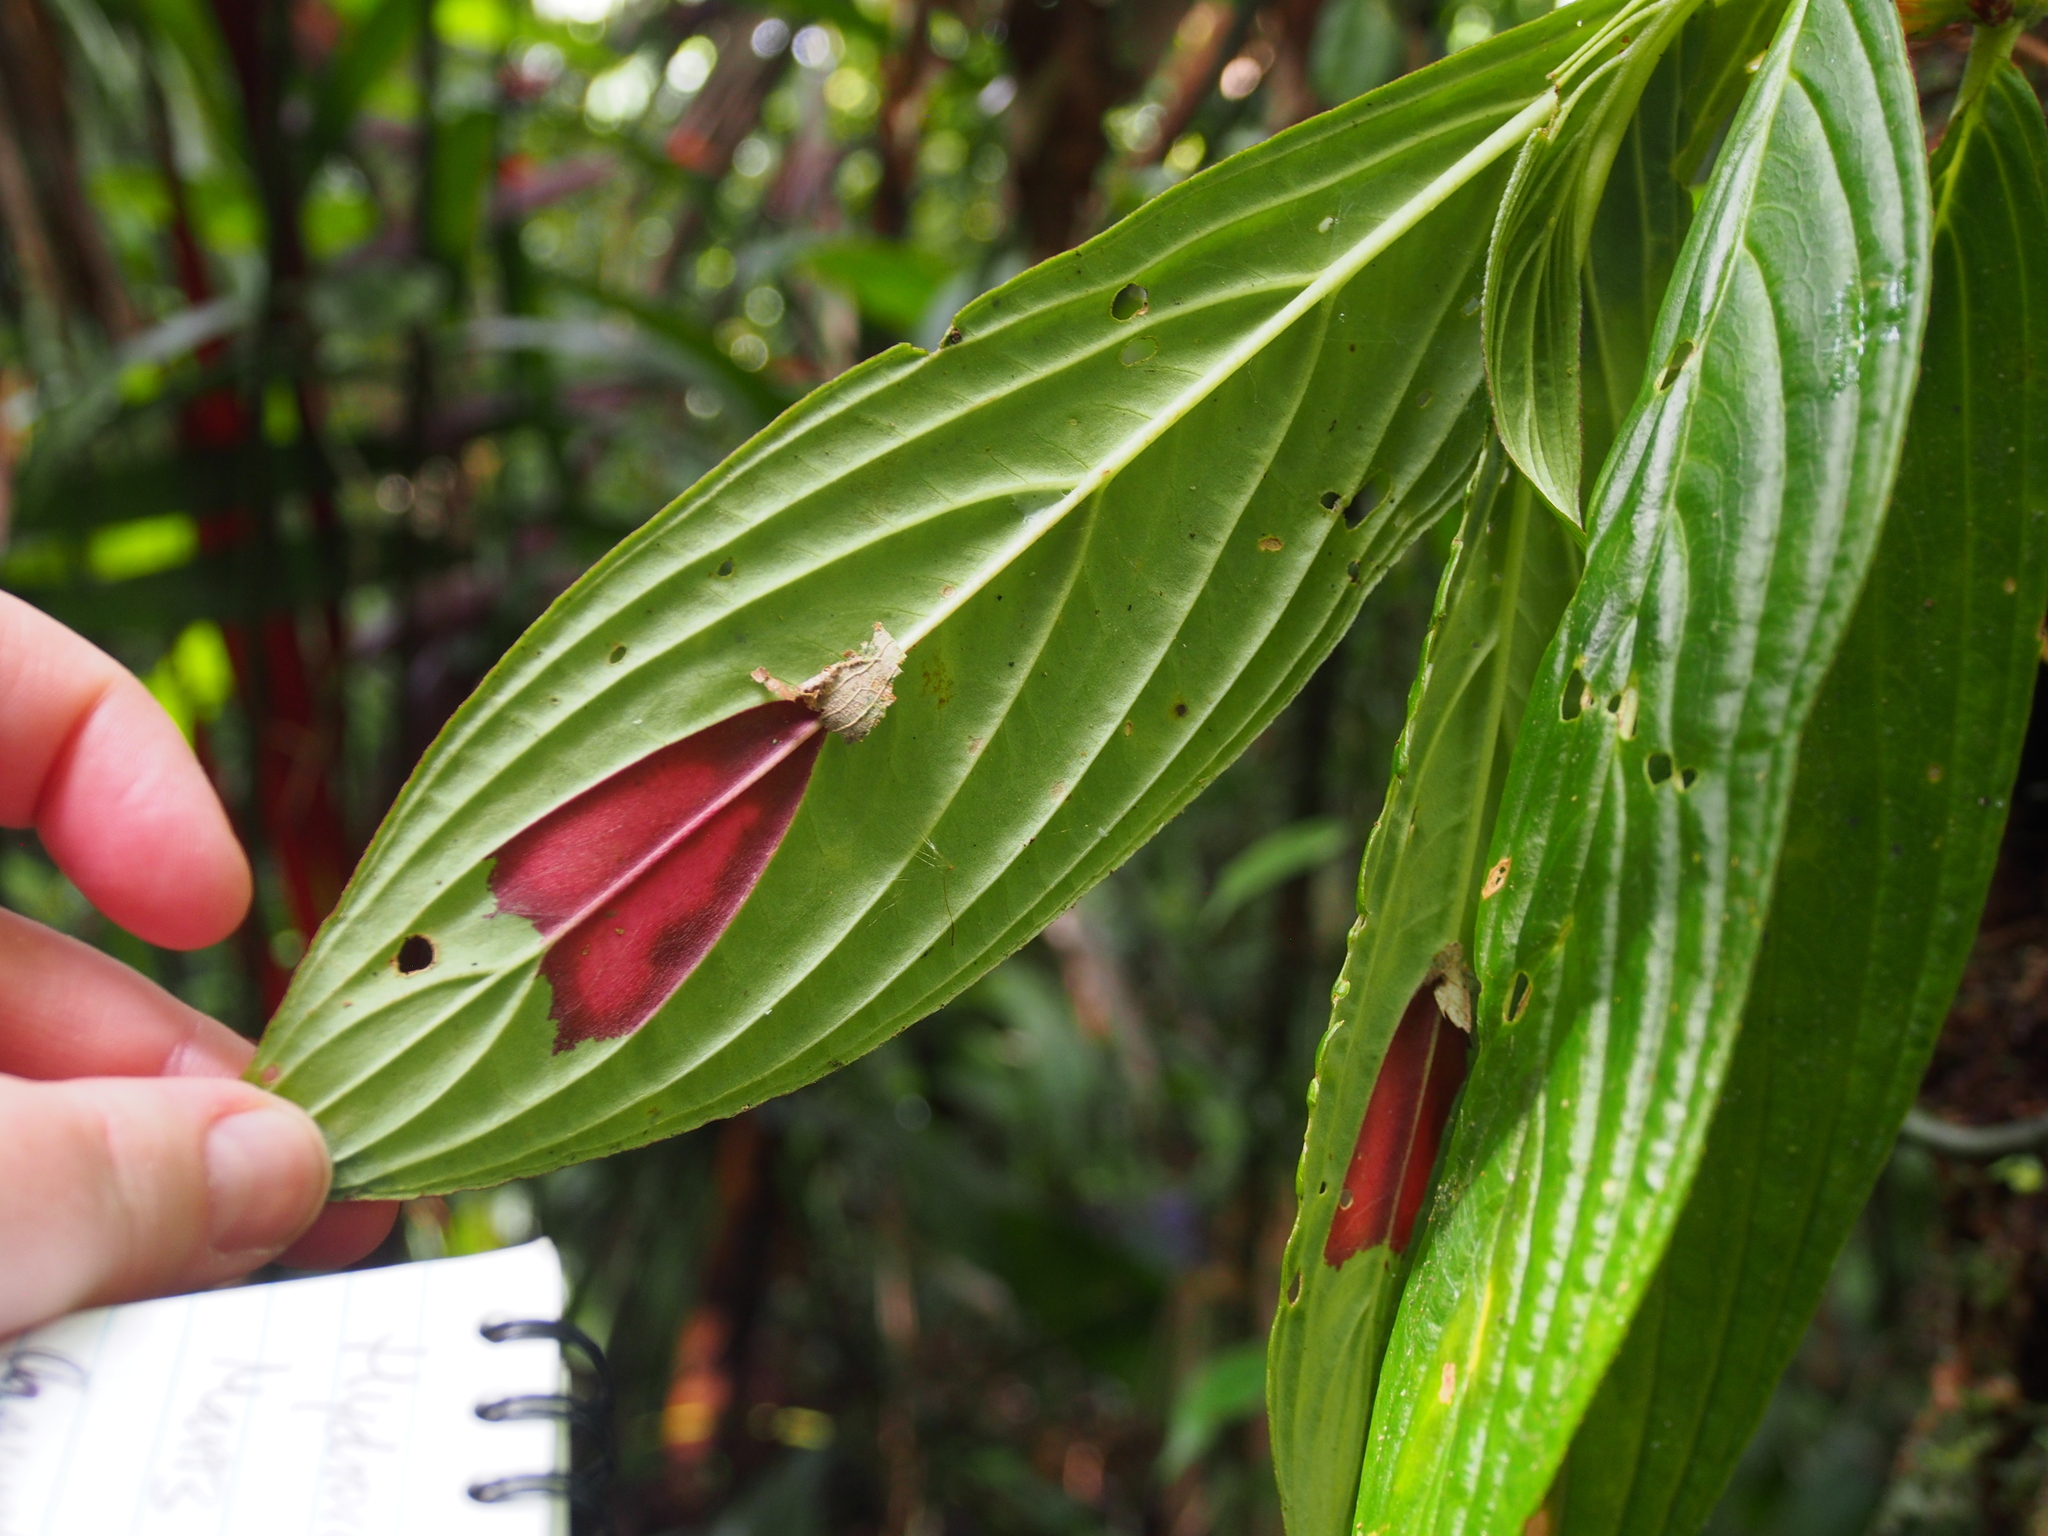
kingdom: Plantae
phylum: Tracheophyta
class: Magnoliopsida
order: Lamiales
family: Gesneriaceae
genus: Columnea
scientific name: Columnea consanguinea
